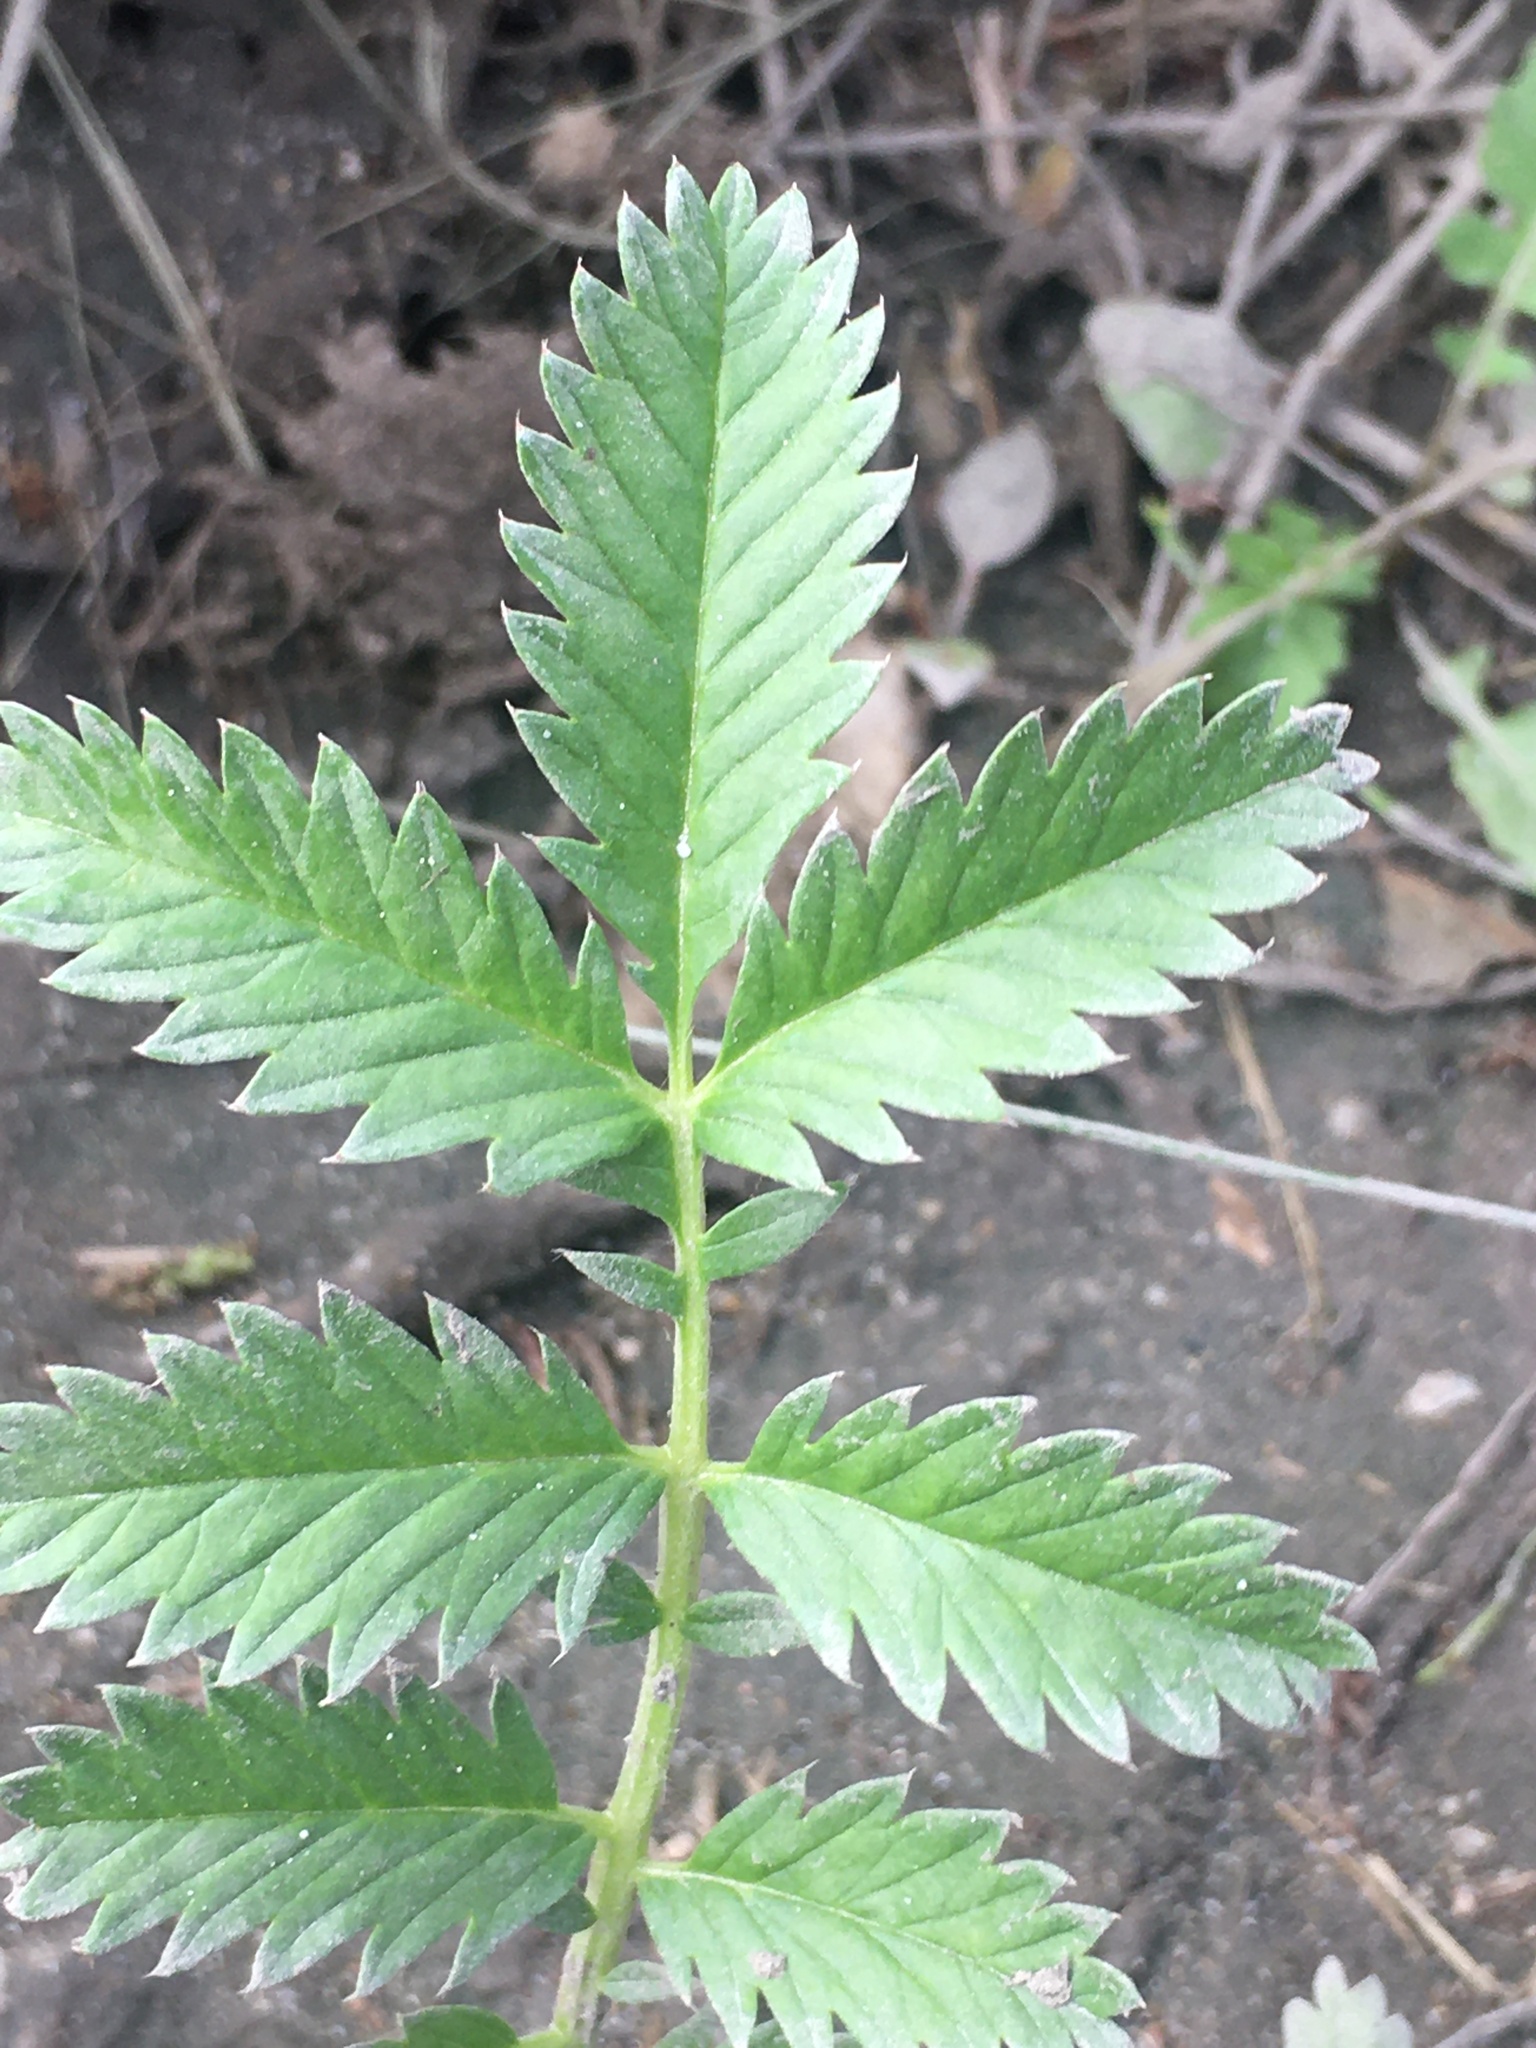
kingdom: Plantae
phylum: Tracheophyta
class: Magnoliopsida
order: Rosales
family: Rosaceae
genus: Argentina
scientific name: Argentina anserina
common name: Common silverweed
